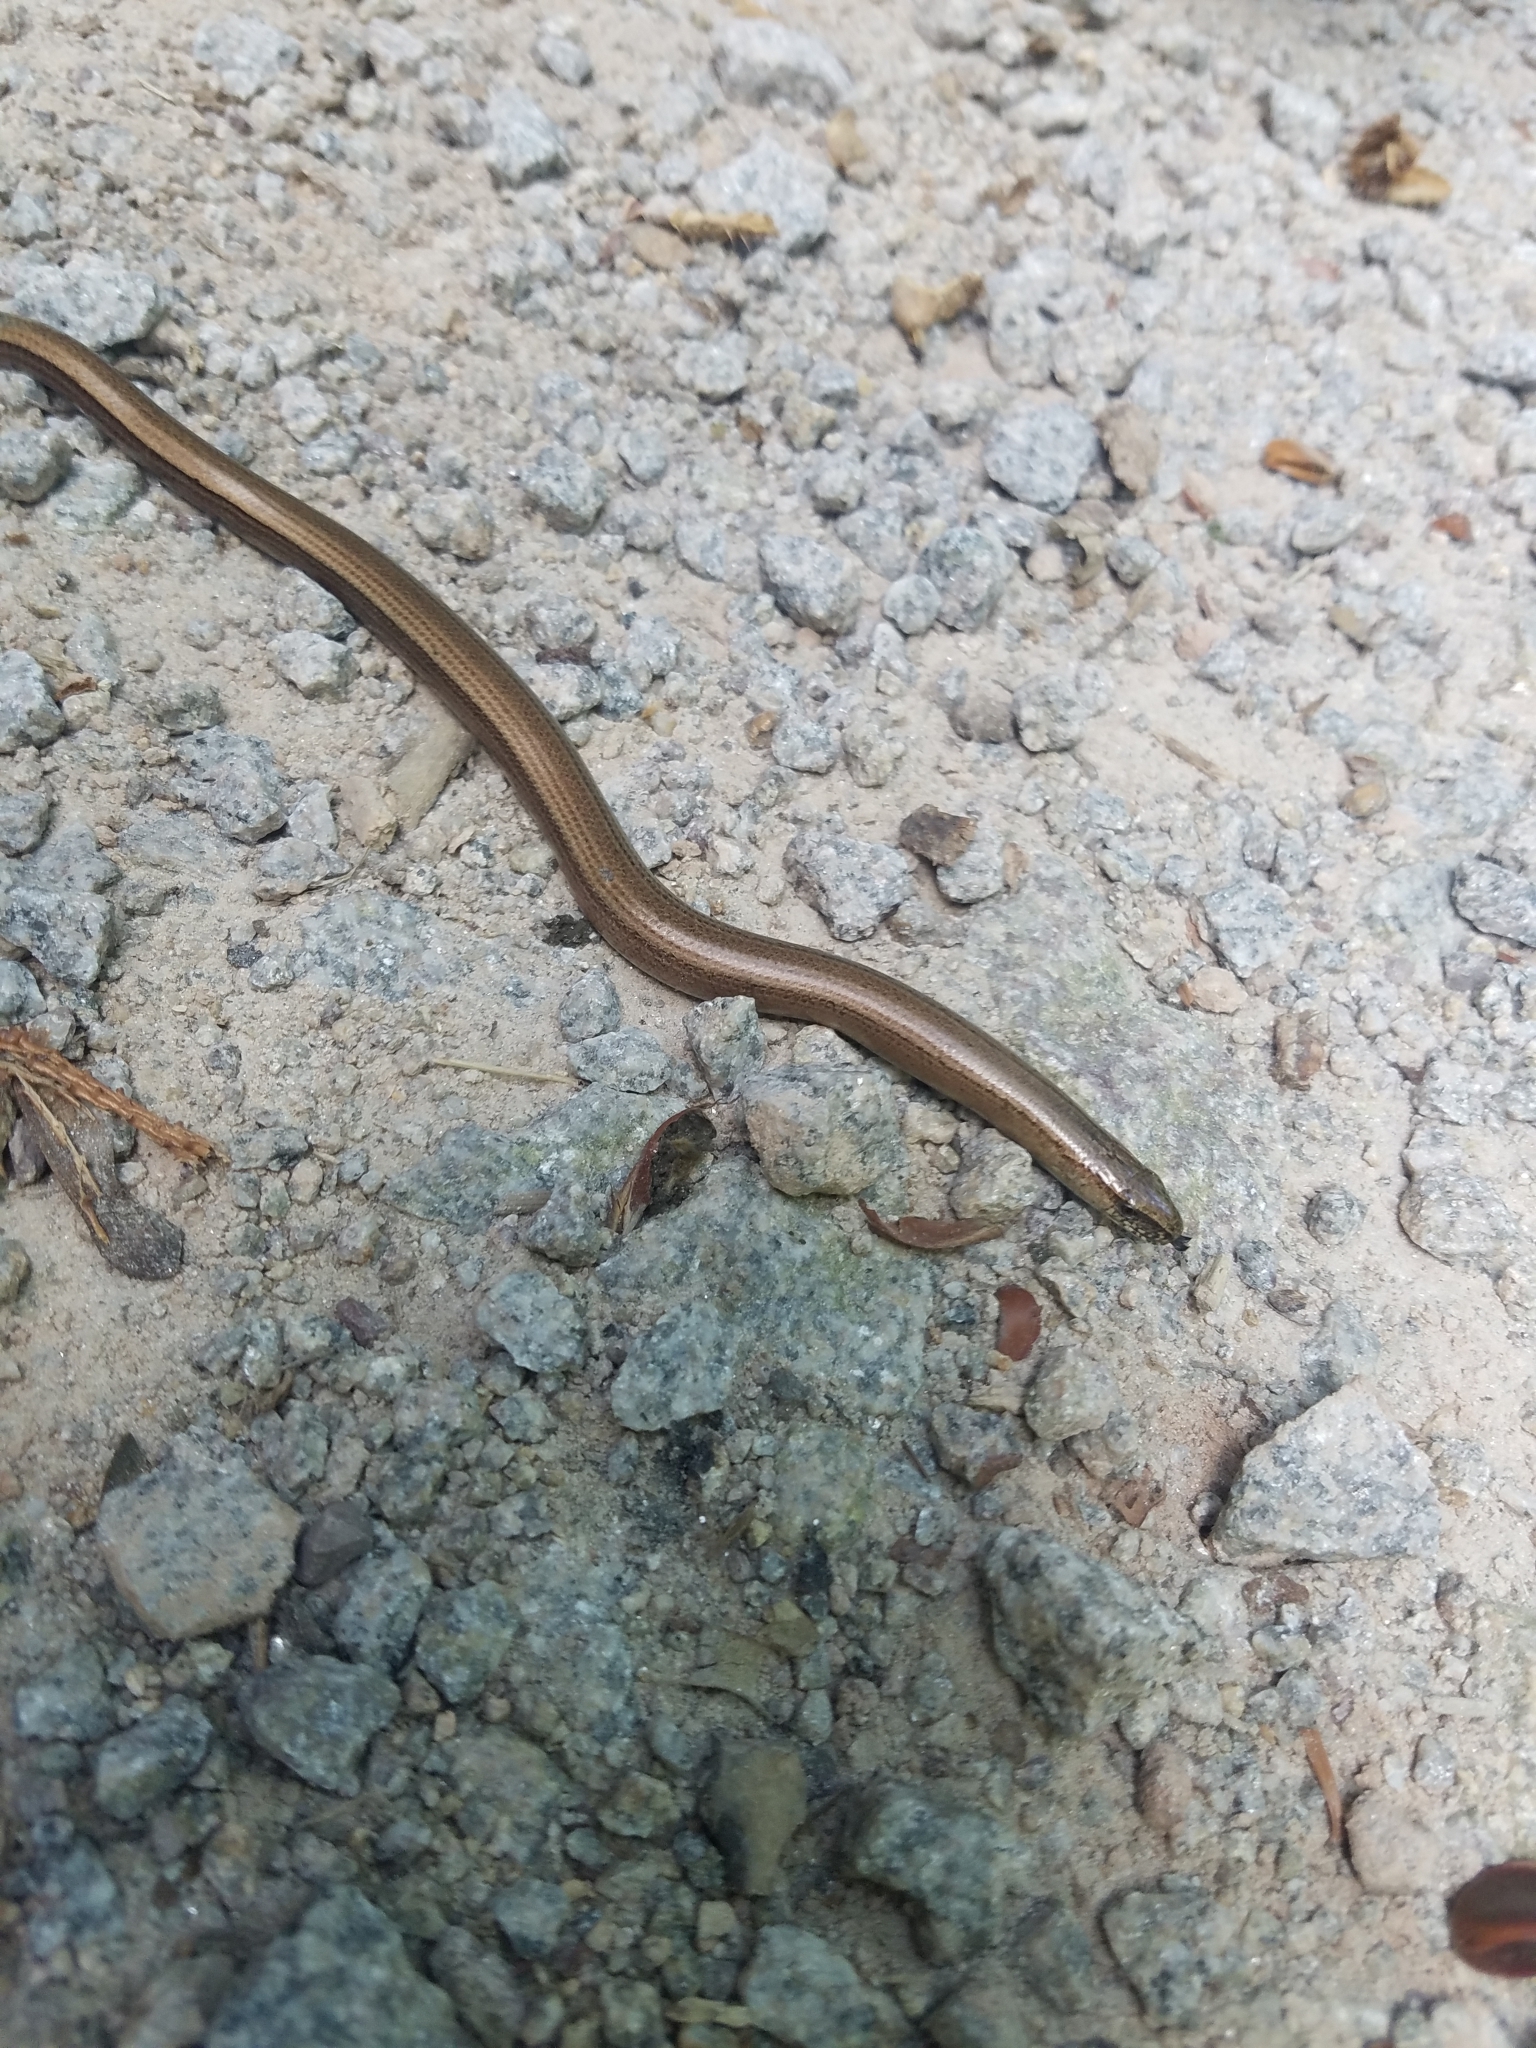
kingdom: Animalia
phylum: Chordata
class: Squamata
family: Anguidae
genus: Anguis
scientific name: Anguis fragilis
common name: Slow worm
